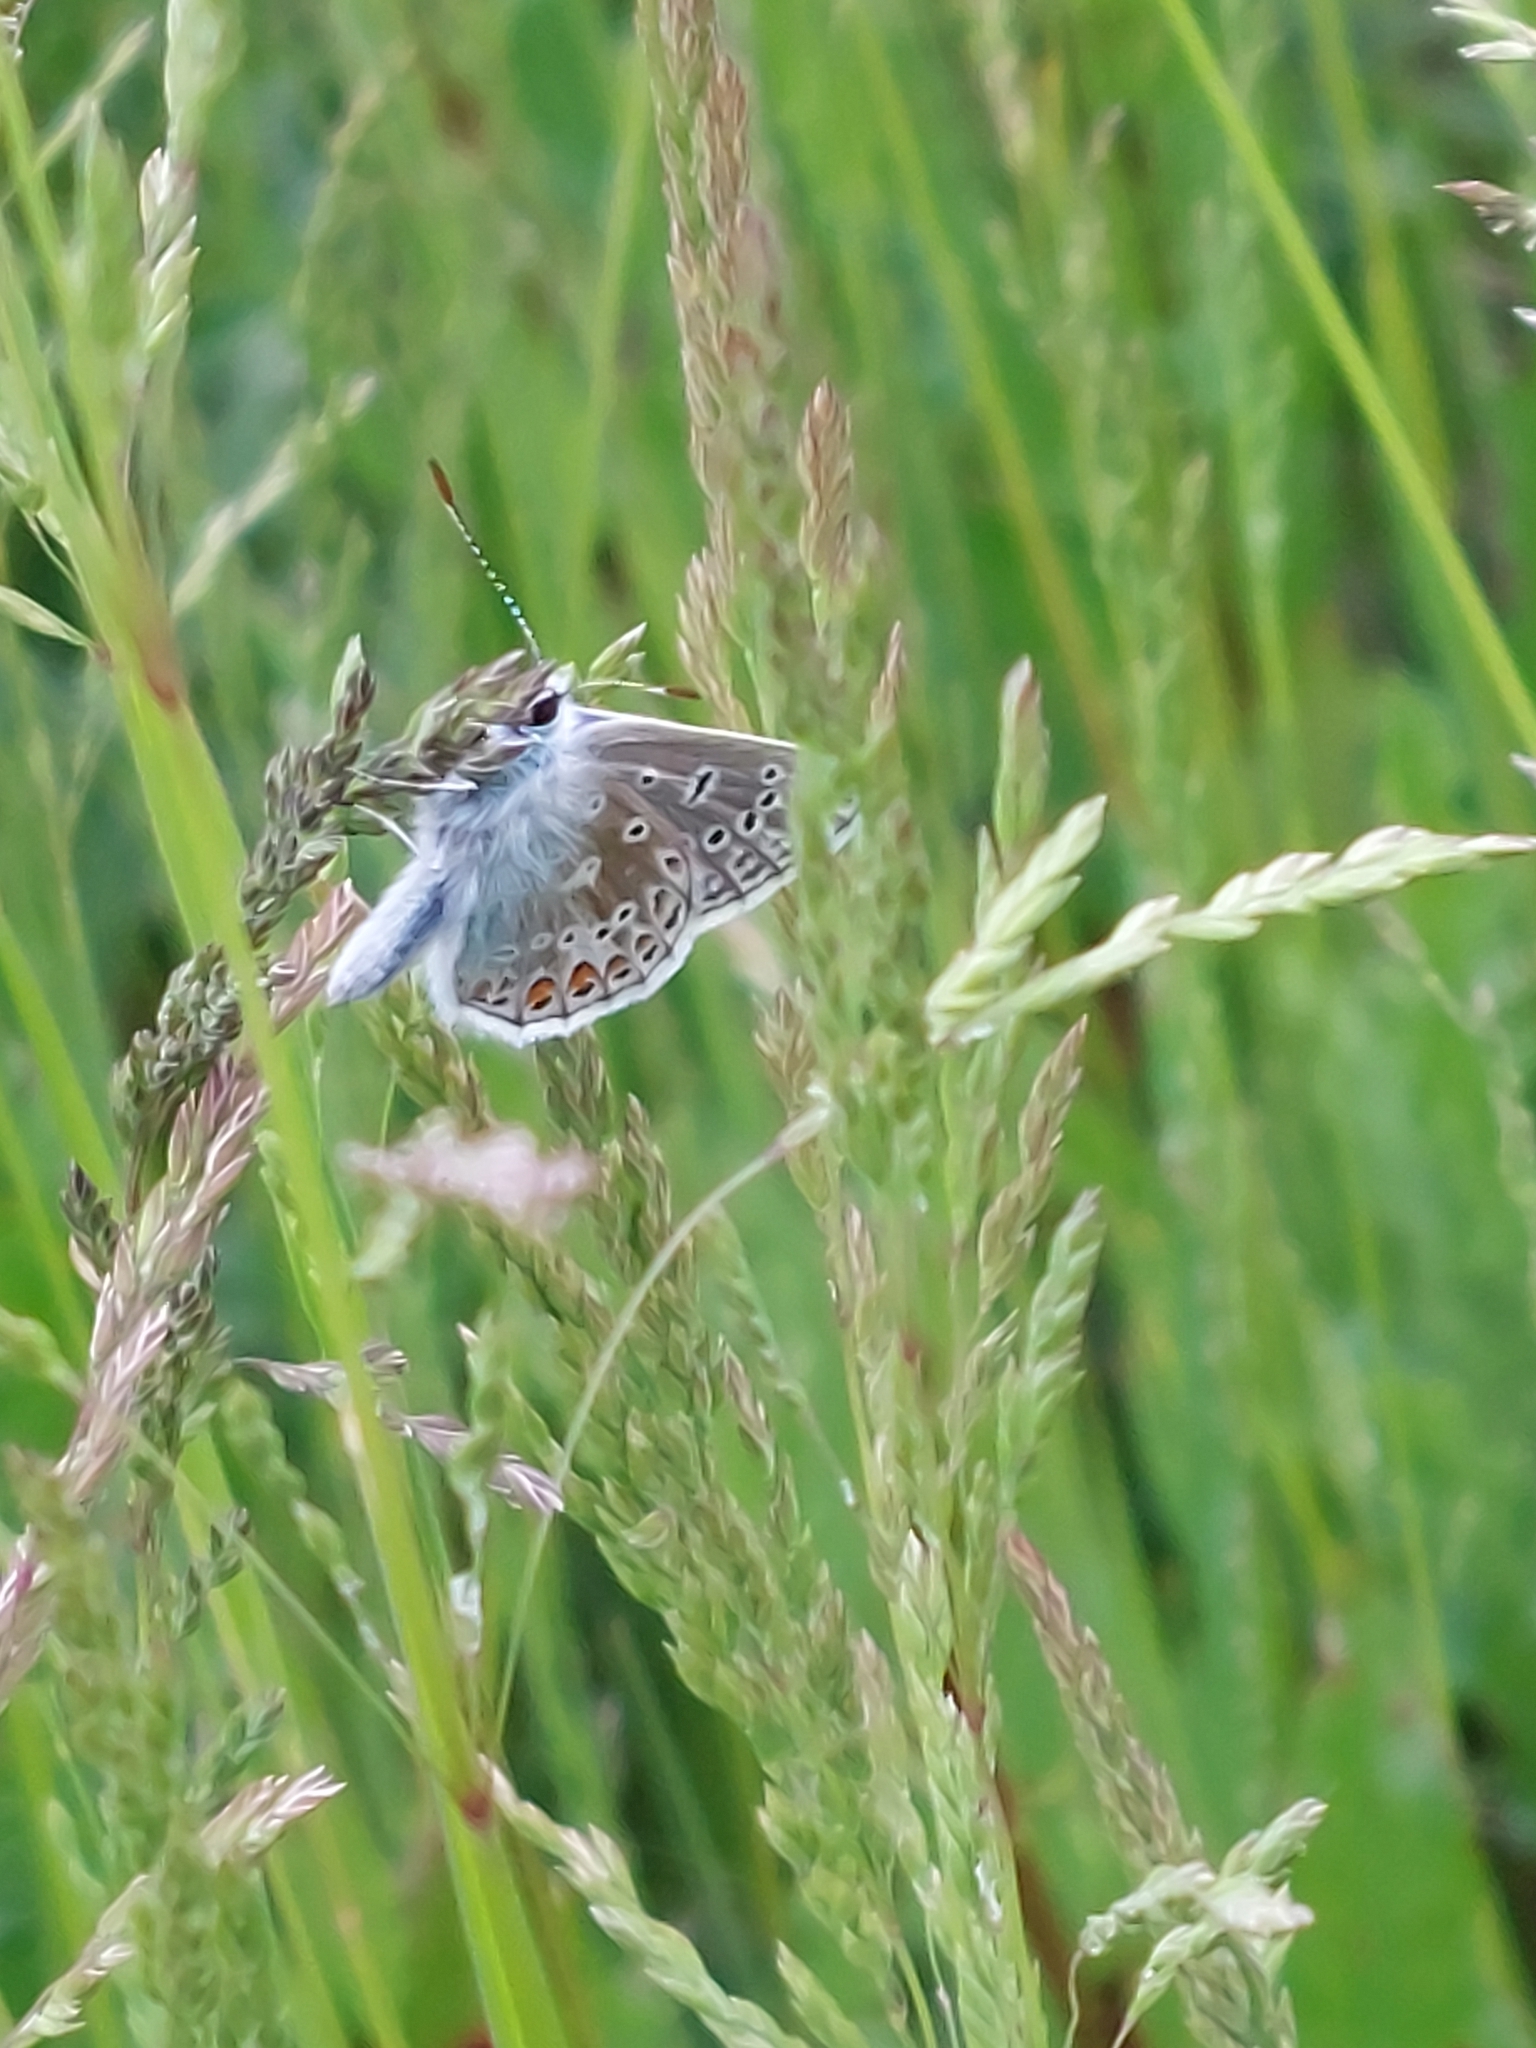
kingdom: Animalia
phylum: Arthropoda
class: Insecta
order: Lepidoptera
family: Lycaenidae
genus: Polyommatus
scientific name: Polyommatus icarus
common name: Common blue
